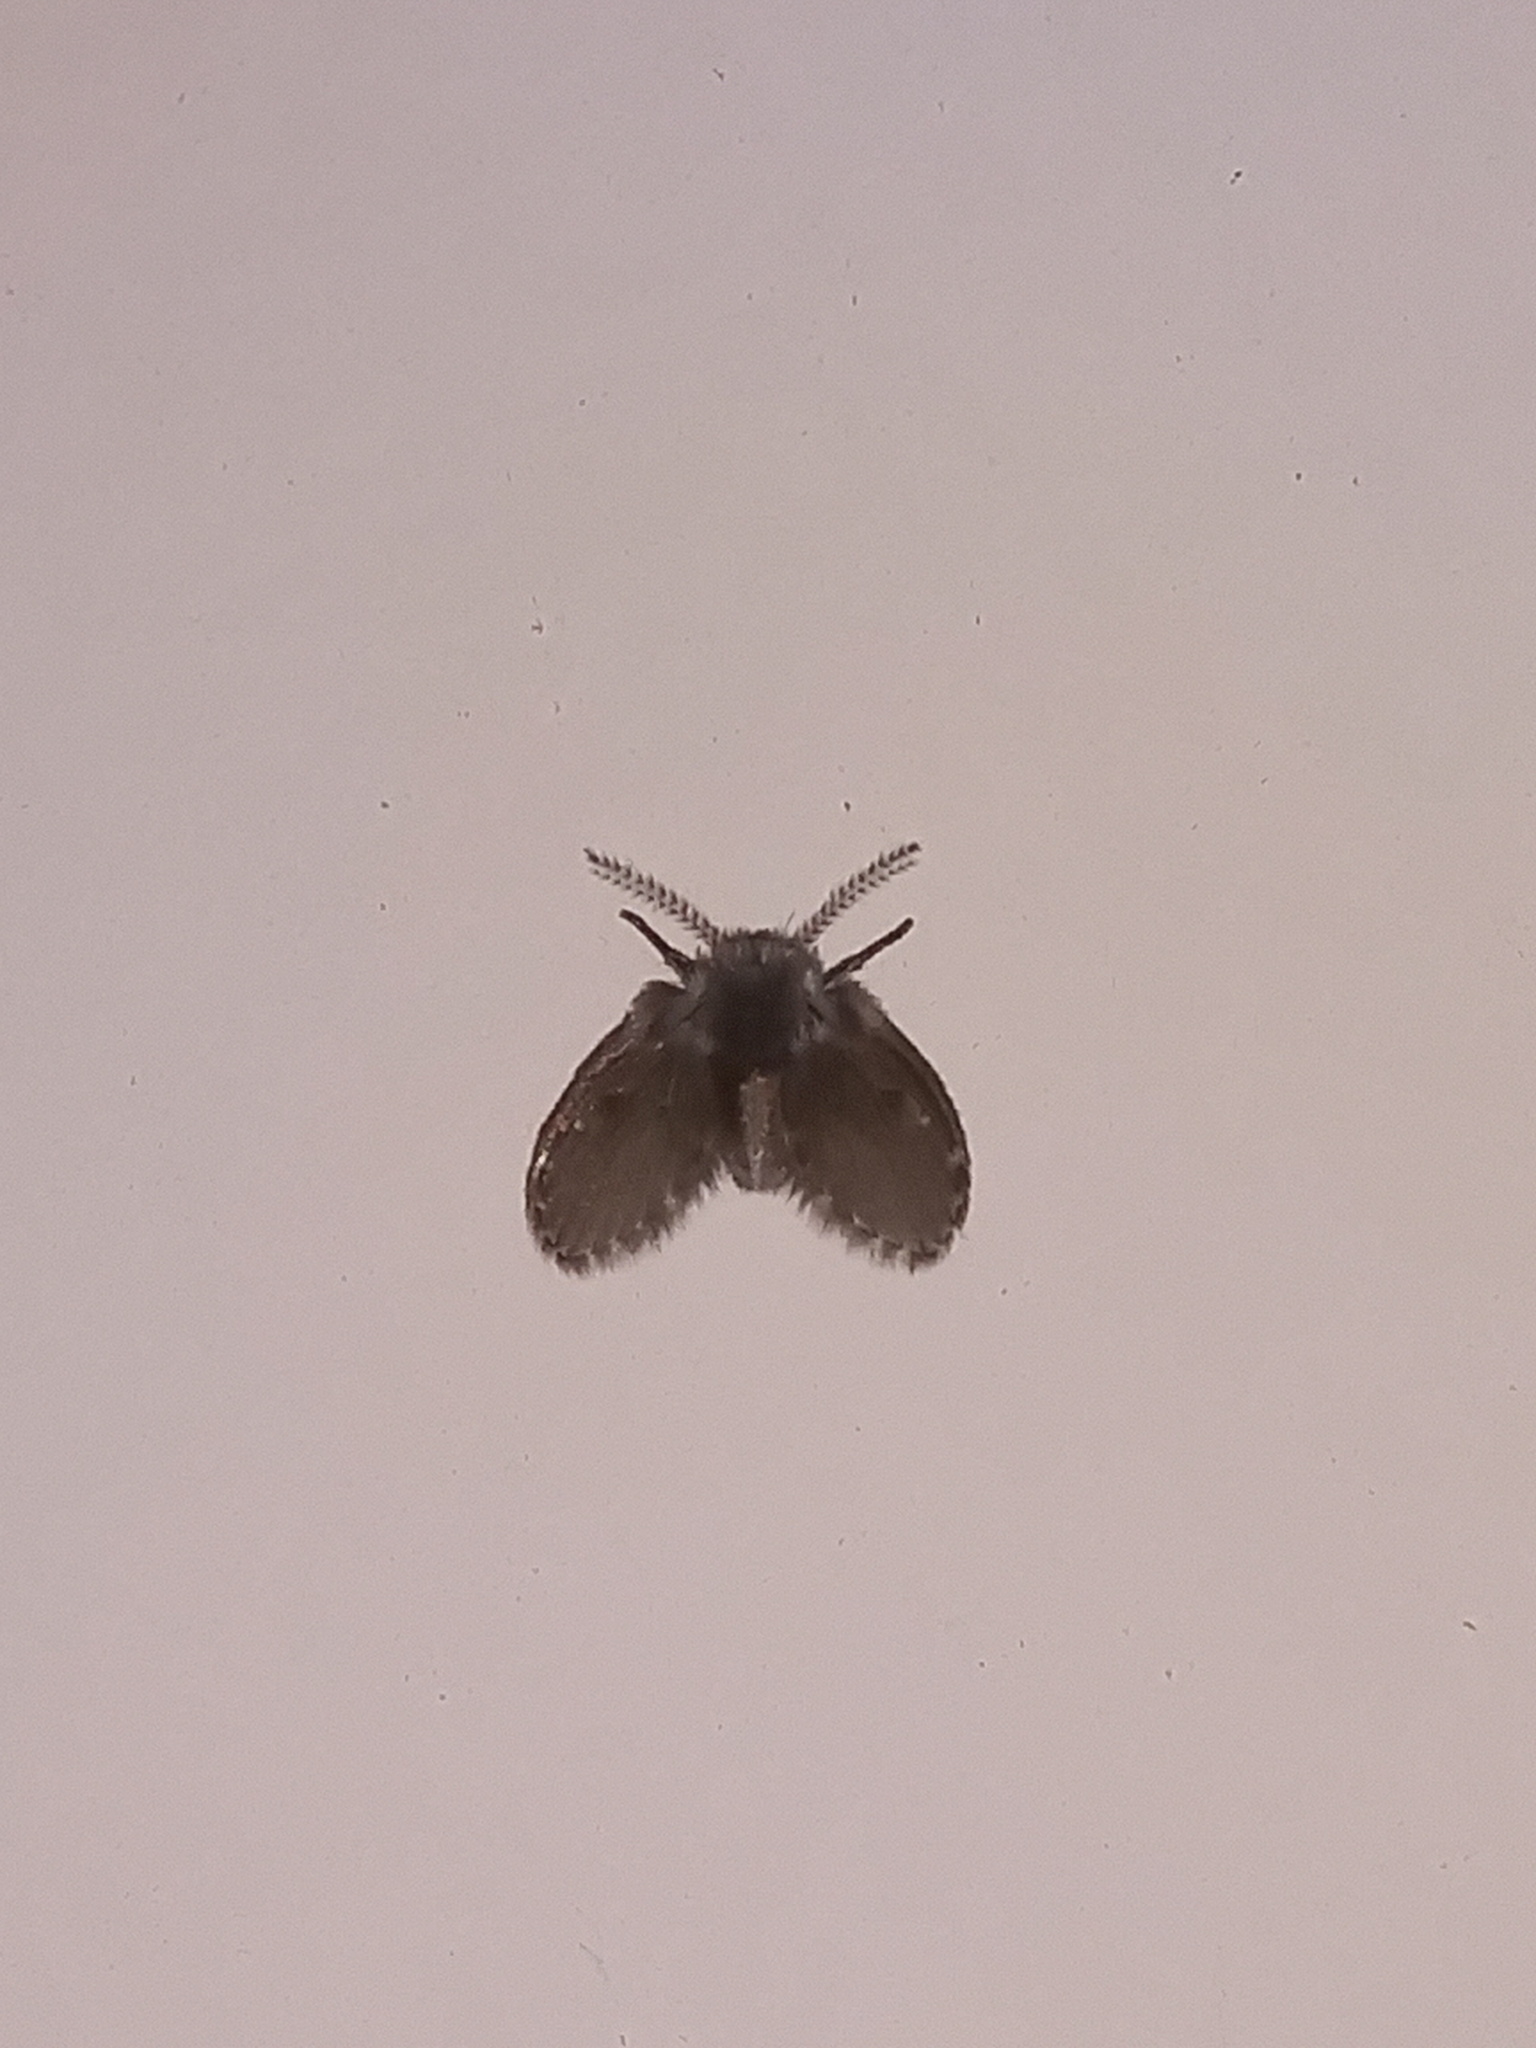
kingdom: Animalia
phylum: Arthropoda
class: Insecta
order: Diptera
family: Psychodidae
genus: Clogmia
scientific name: Clogmia albipunctatus
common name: White-spotted moth fly
